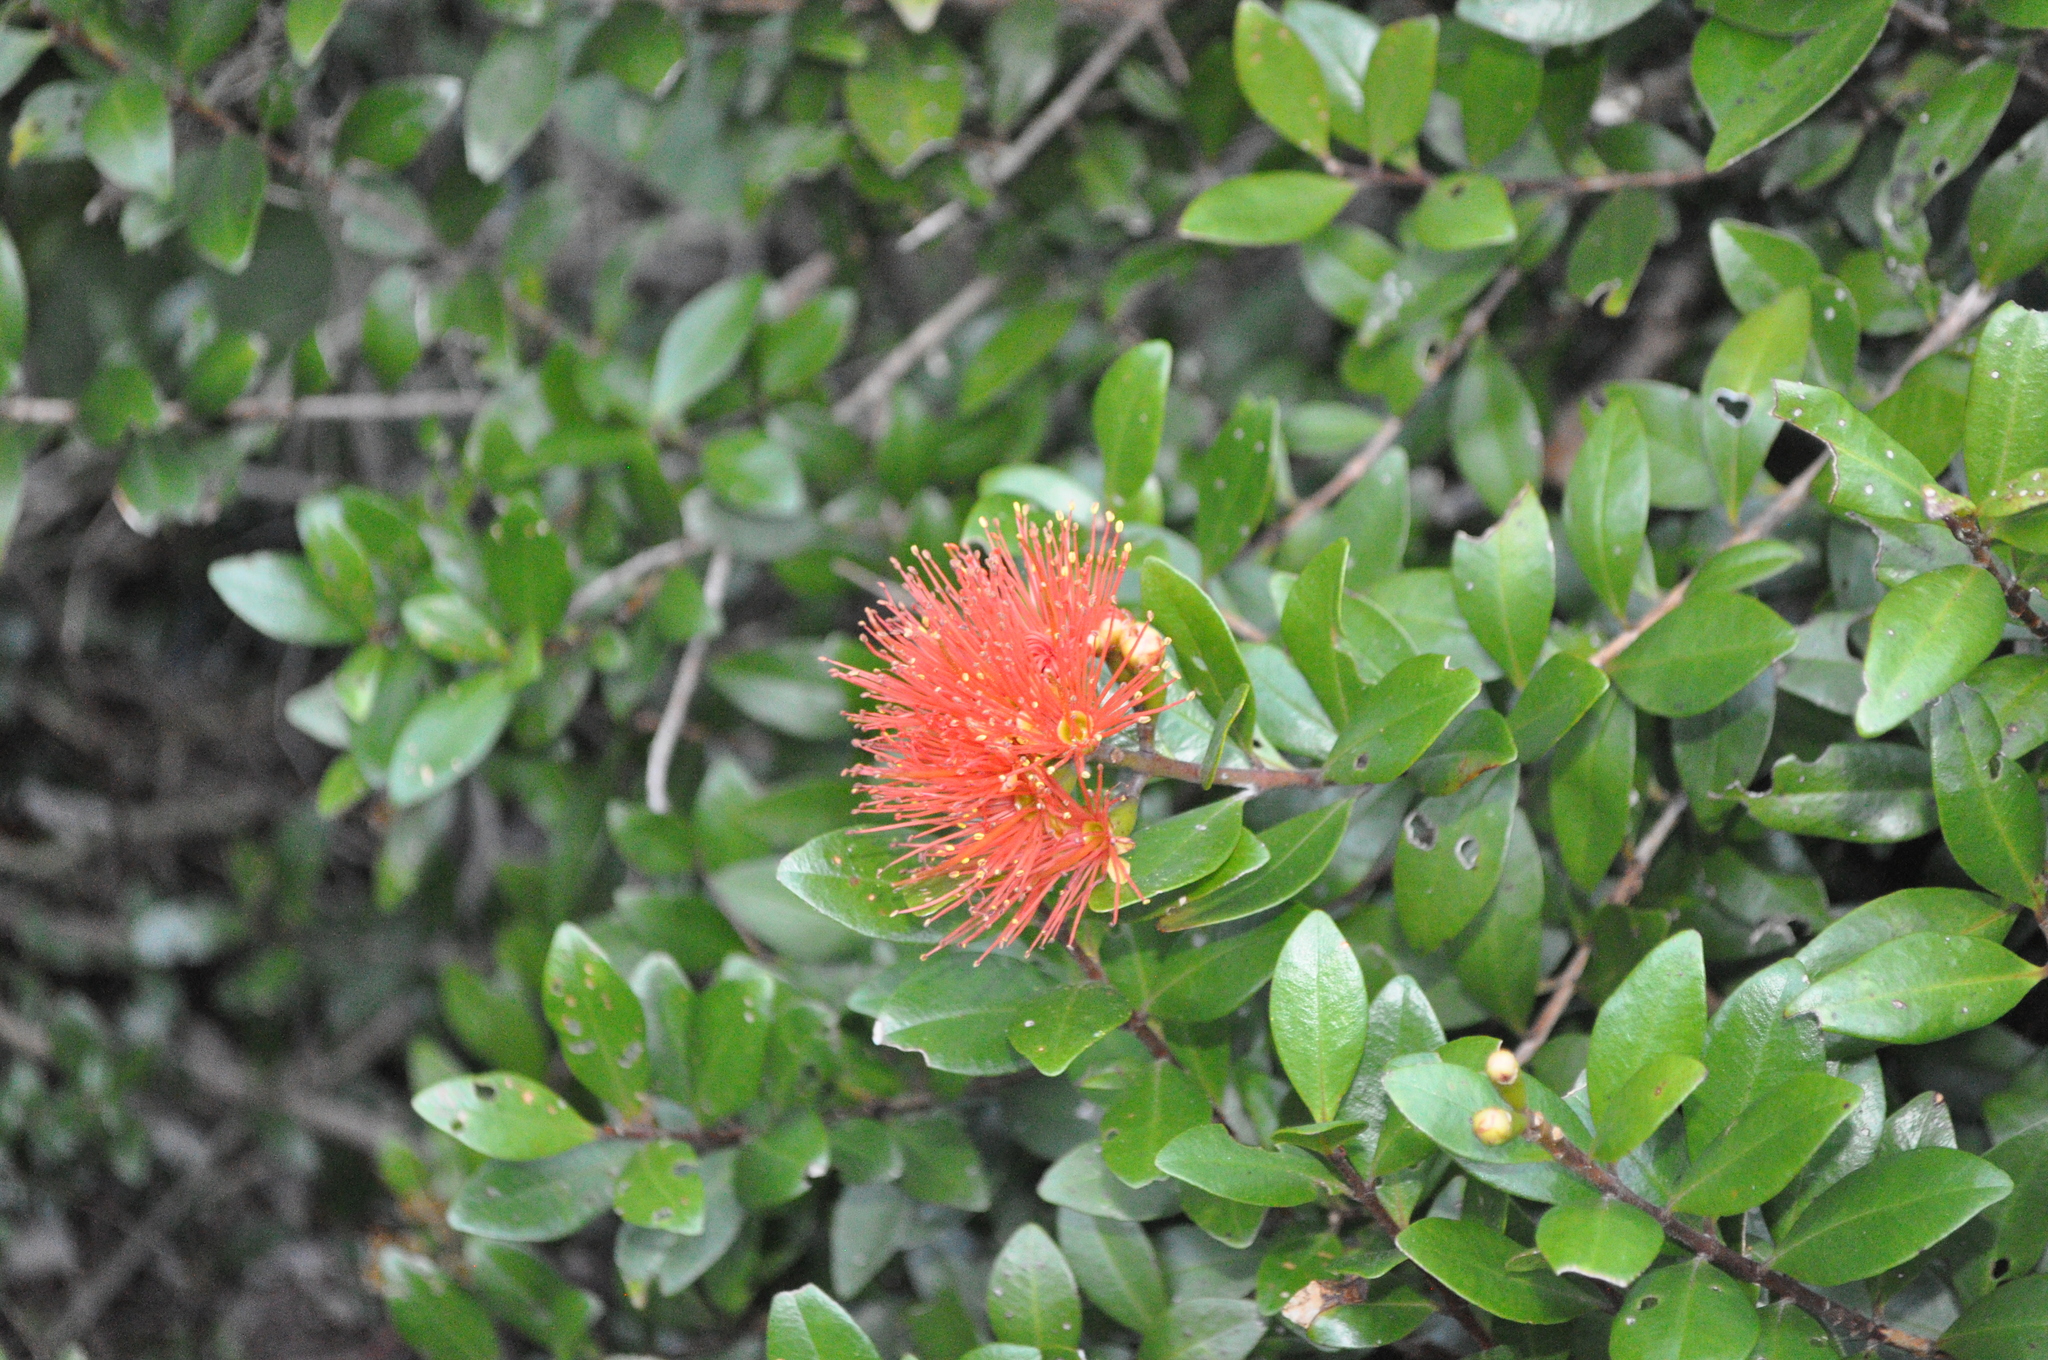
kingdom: Plantae
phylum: Tracheophyta
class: Magnoliopsida
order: Myrtales
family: Myrtaceae
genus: Metrosideros
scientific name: Metrosideros fulgens
